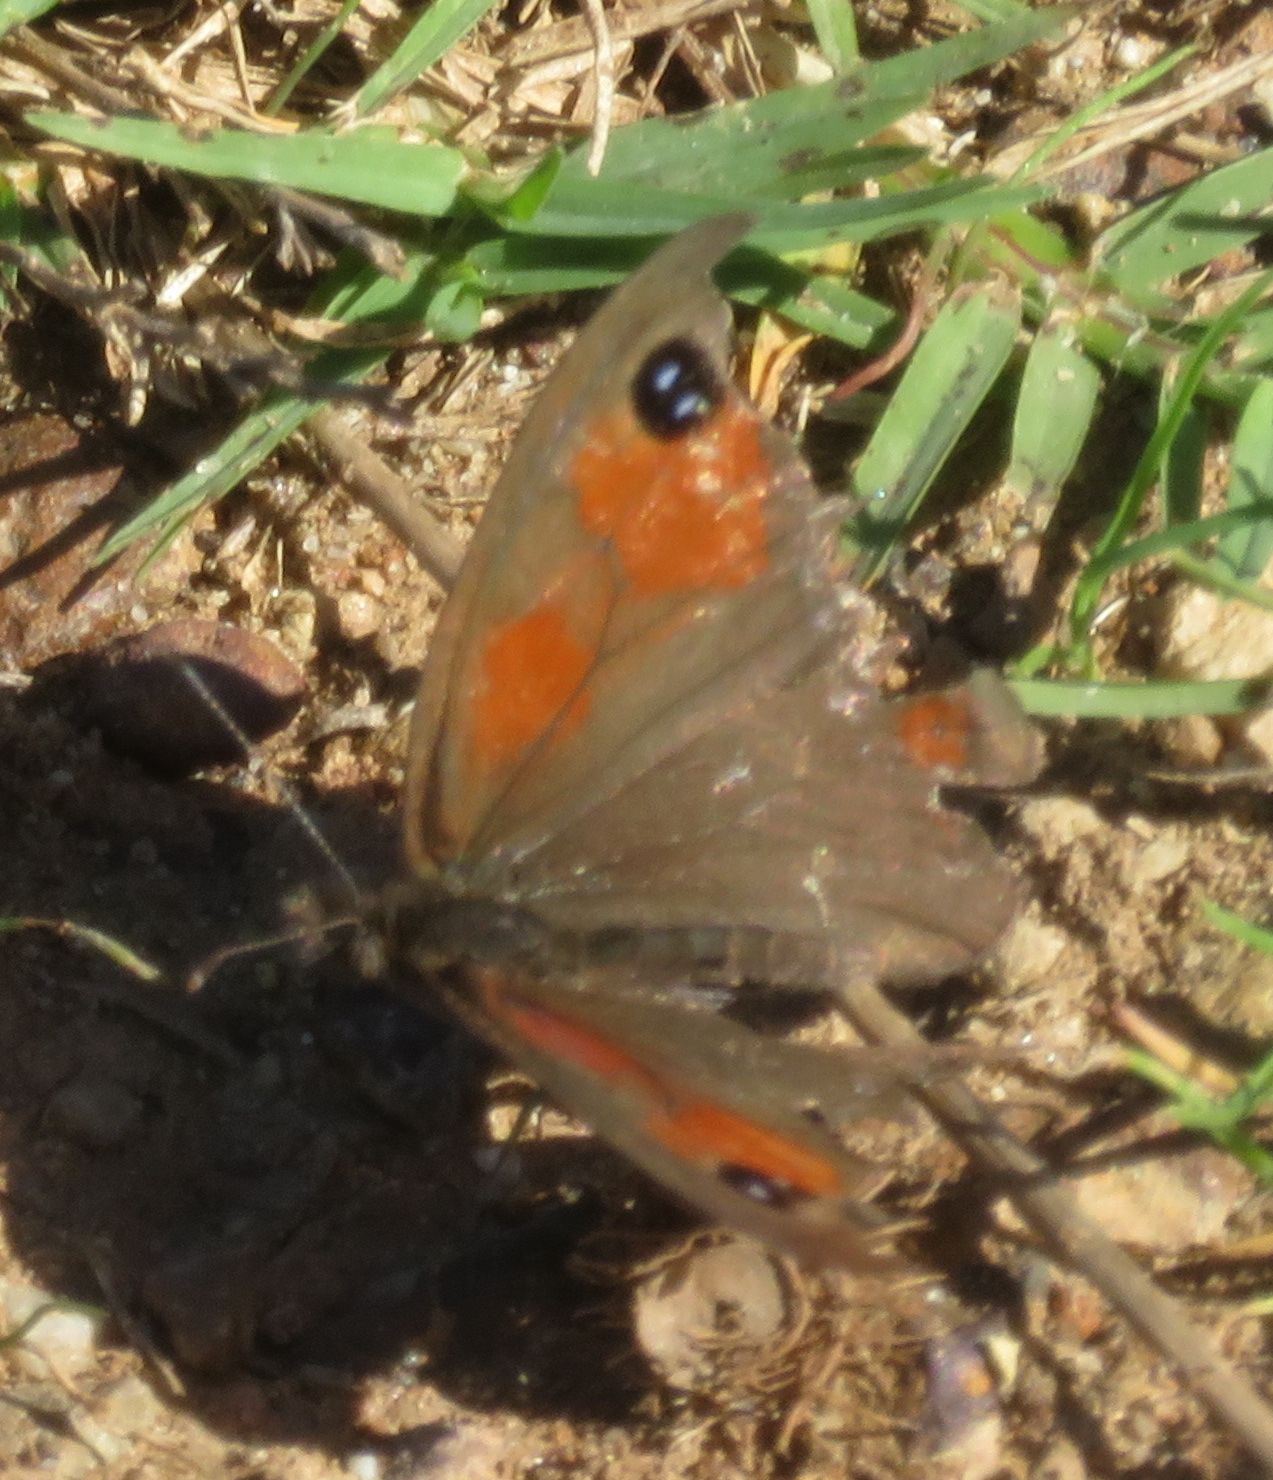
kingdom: Animalia
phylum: Arthropoda
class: Insecta
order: Lepidoptera
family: Nymphalidae
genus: Pseudonympha
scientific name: Pseudonympha magus
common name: Silver-bottom brown
